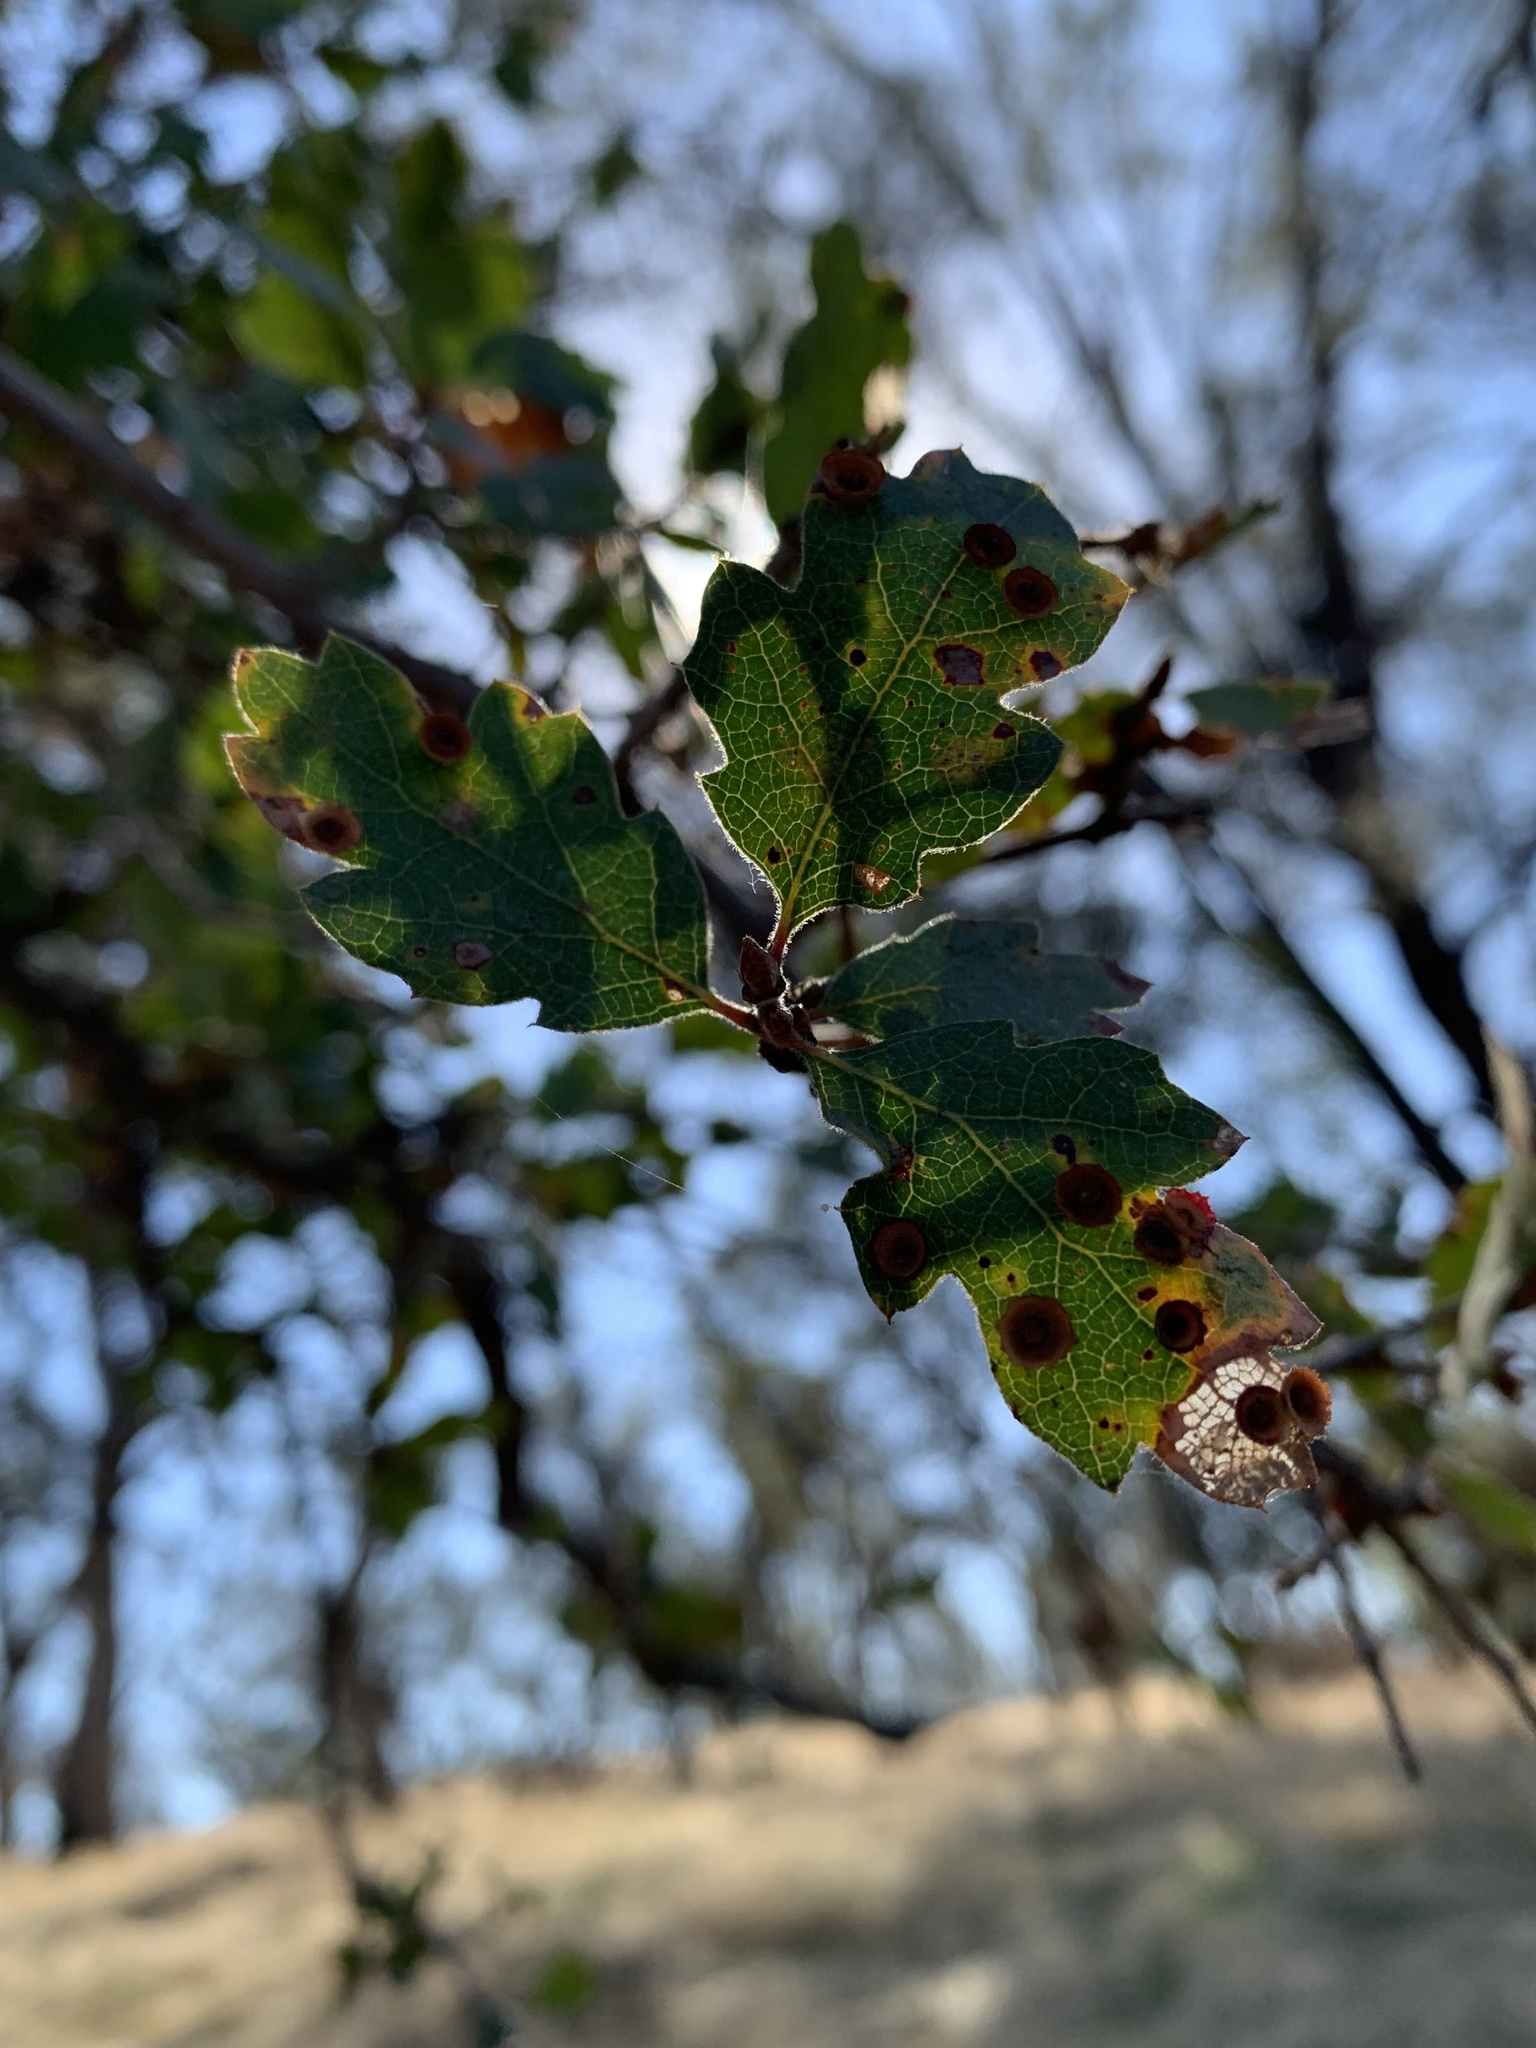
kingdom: Animalia
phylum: Arthropoda
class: Insecta
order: Hymenoptera
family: Cynipidae
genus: Andricus
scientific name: Andricus
